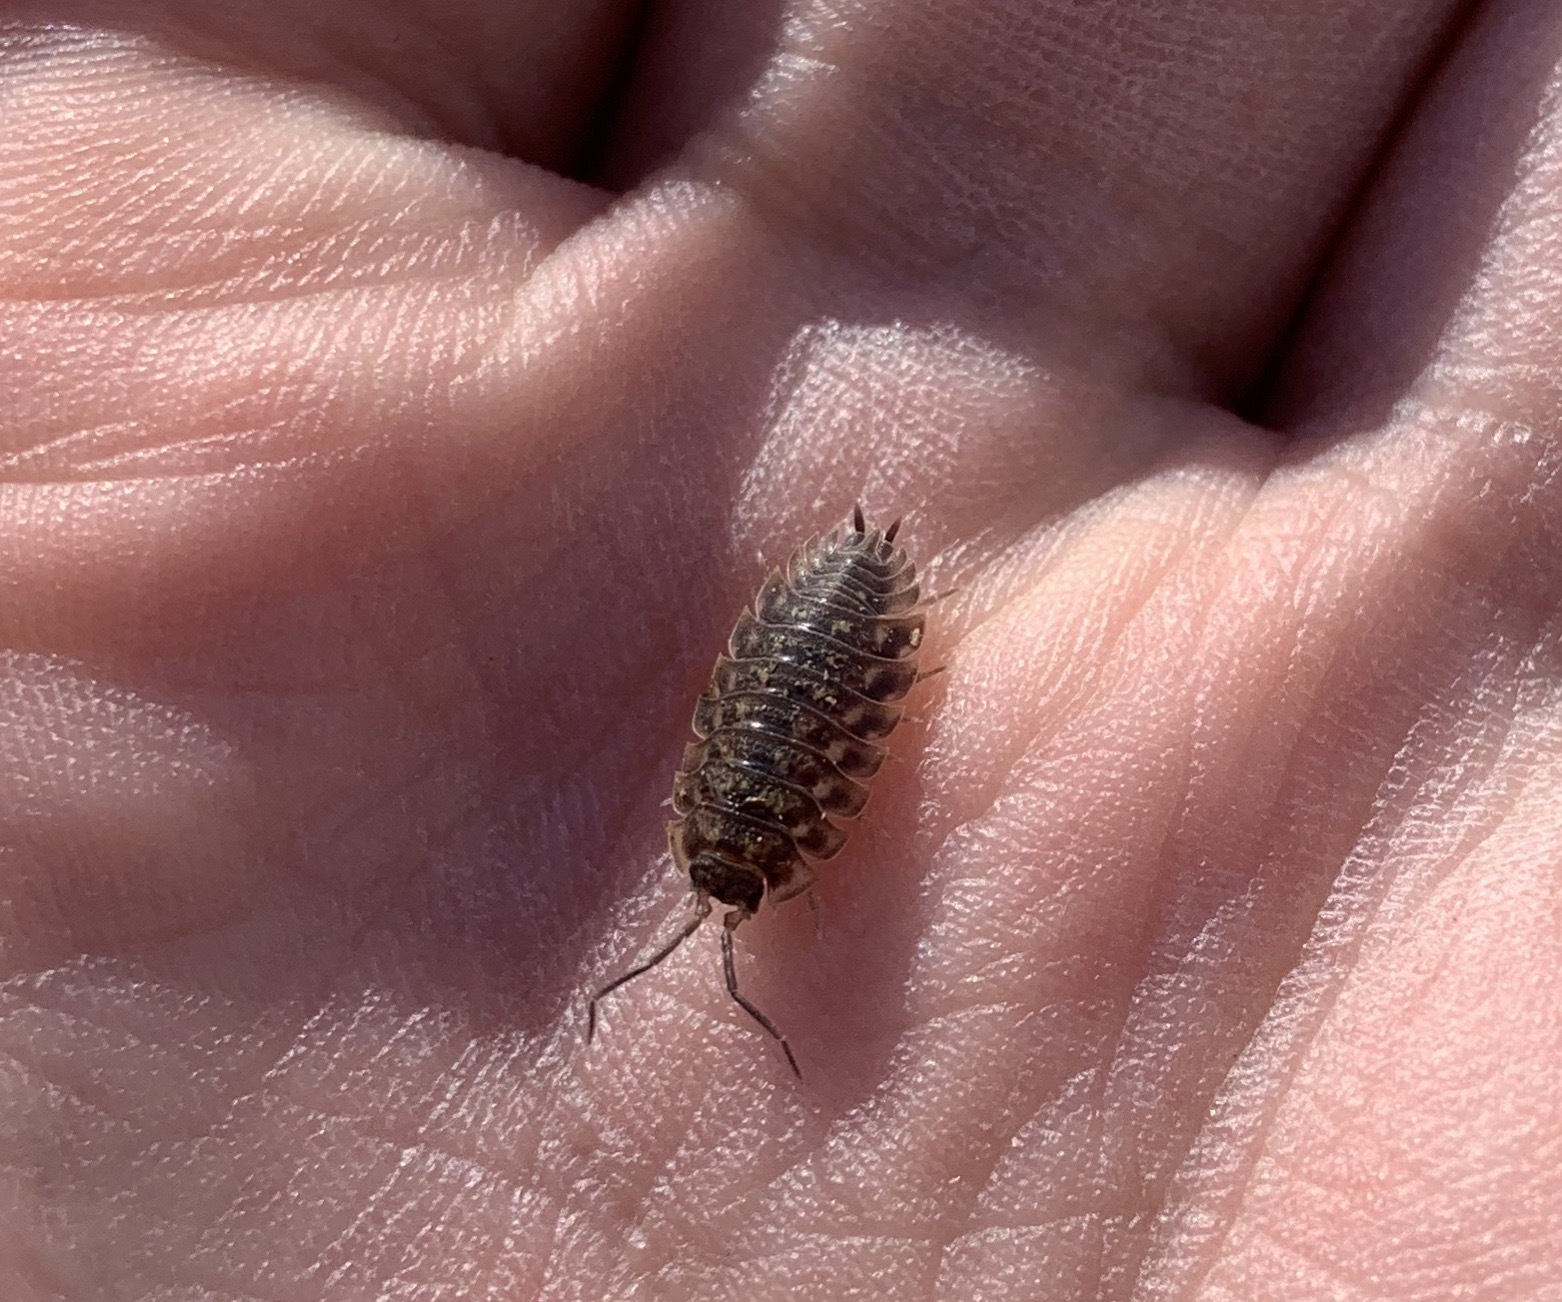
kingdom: Animalia
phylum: Arthropoda
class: Malacostraca
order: Isopoda
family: Oniscidae
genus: Oniscus
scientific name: Oniscus asellus
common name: Common shiny woodlouse
